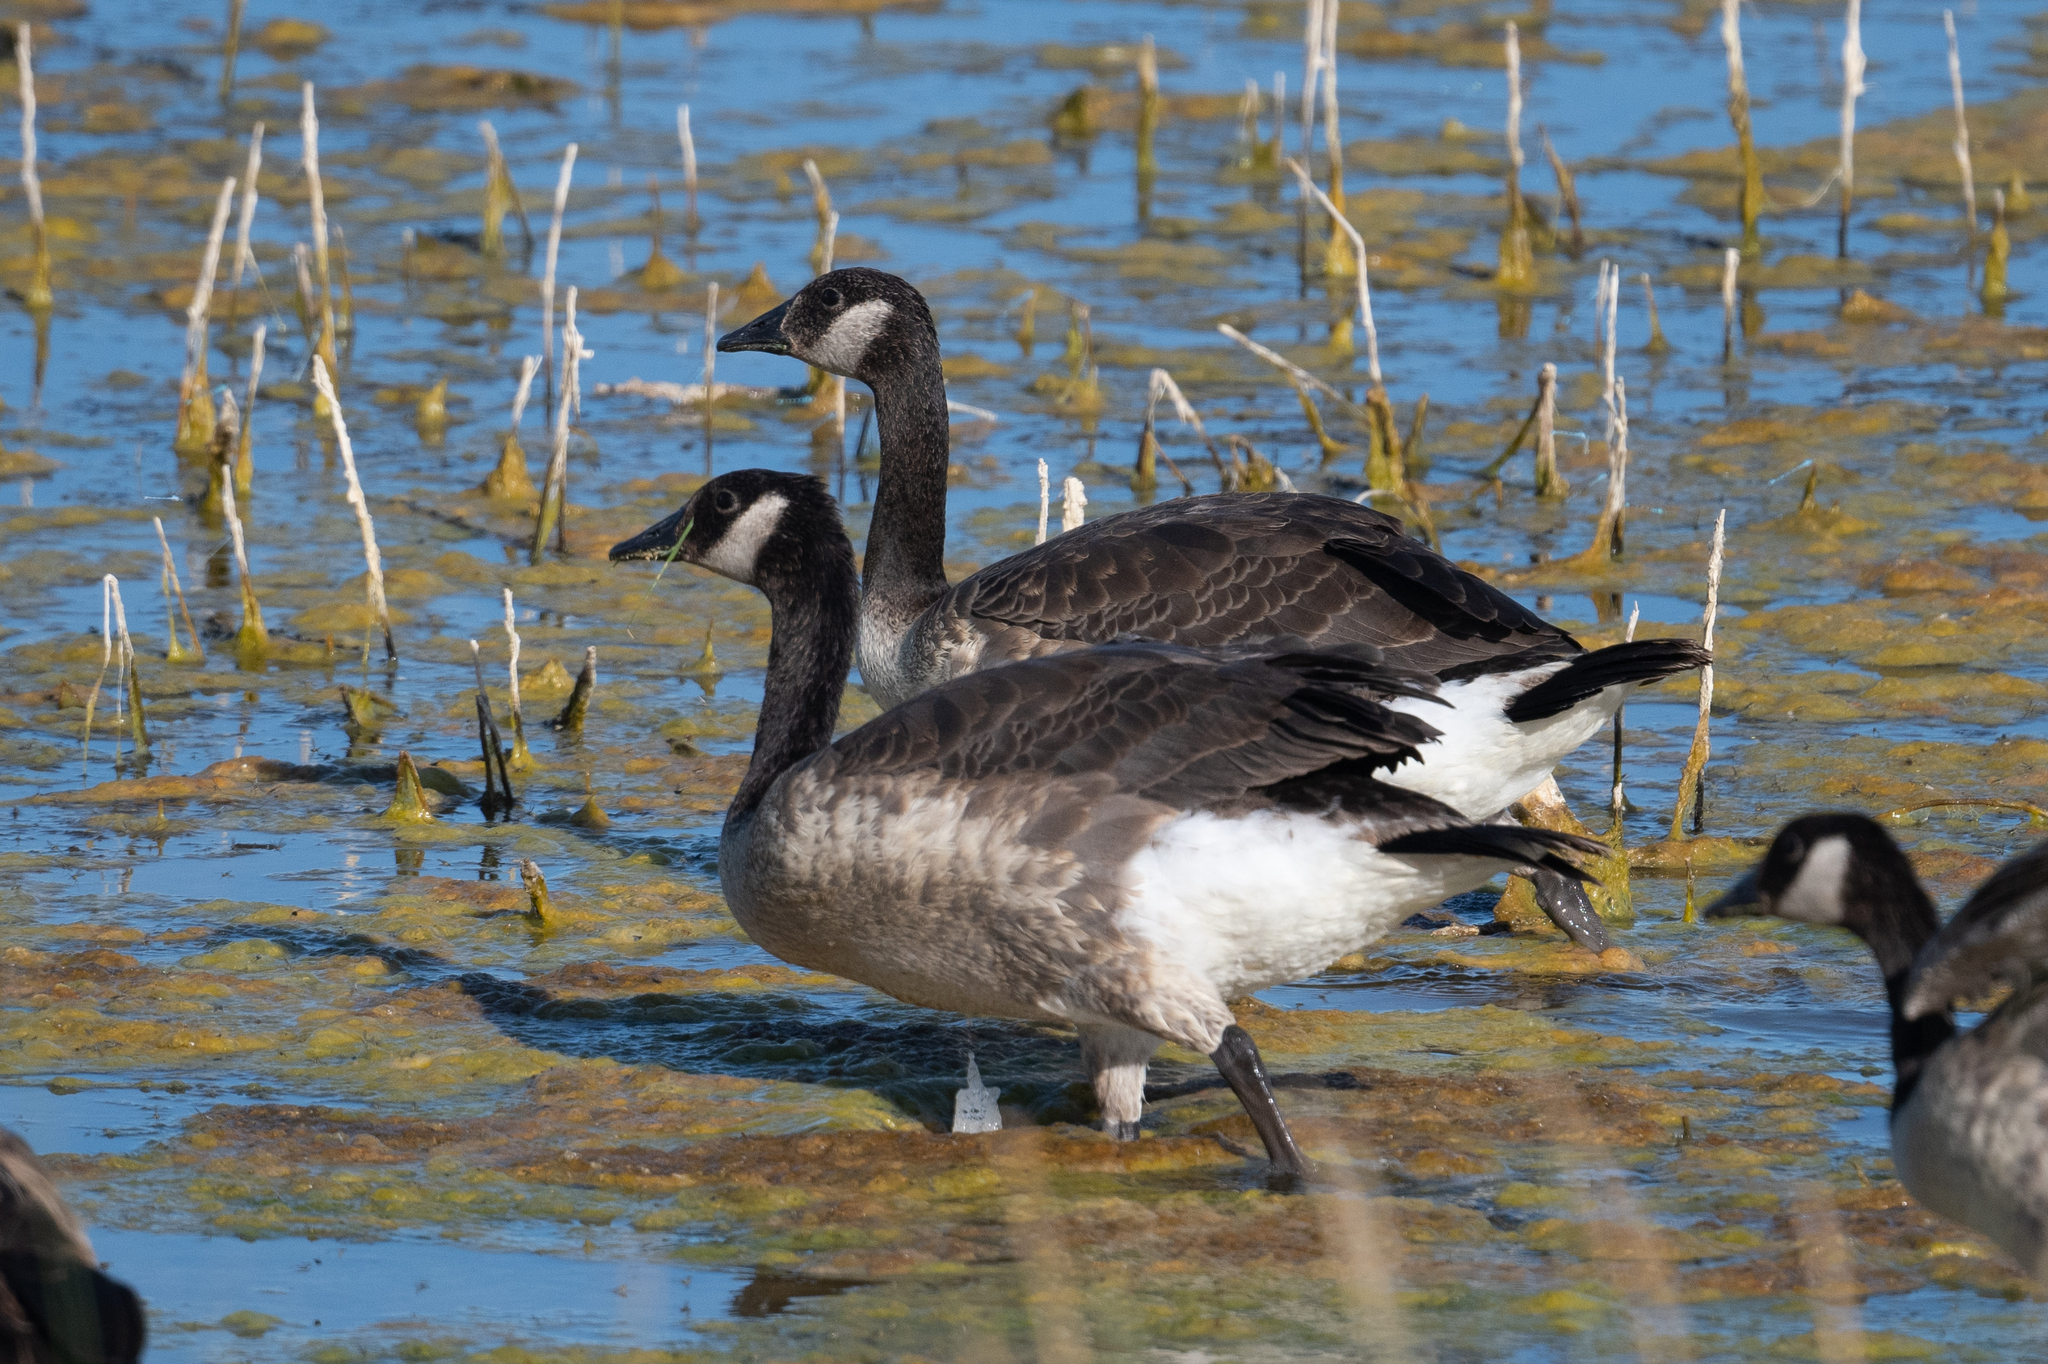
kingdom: Animalia
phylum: Chordata
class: Aves
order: Anseriformes
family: Anatidae
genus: Branta
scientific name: Branta canadensis
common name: Canada goose
